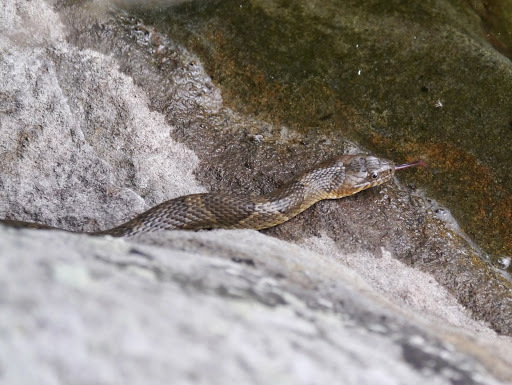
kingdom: Animalia
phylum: Chordata
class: Squamata
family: Colubridae
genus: Nerodia
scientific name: Nerodia sipedon
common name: Northern water snake
